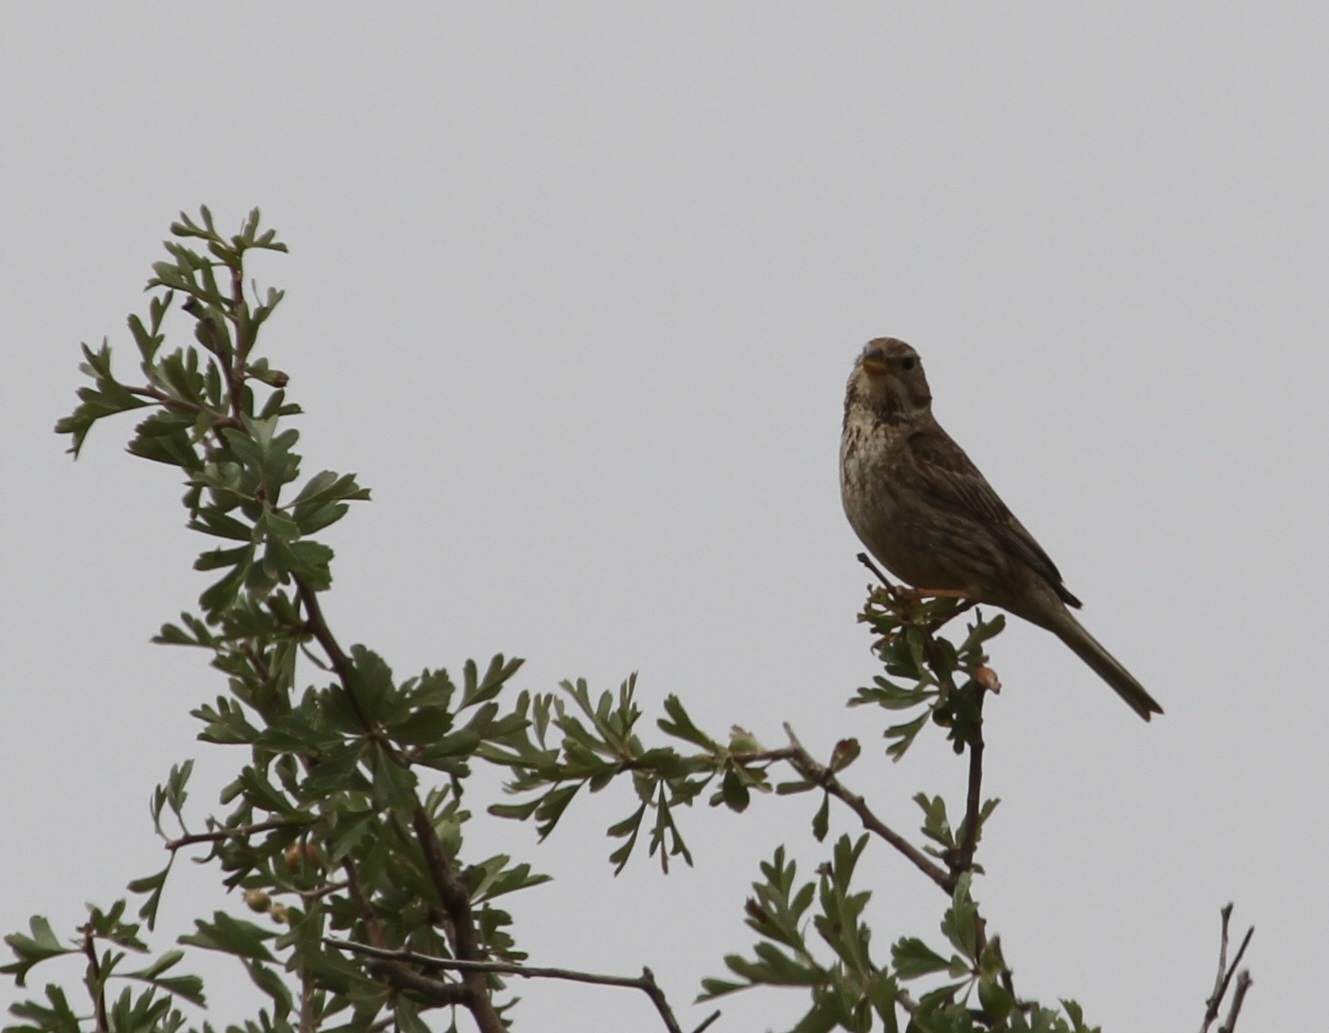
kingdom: Animalia
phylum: Chordata
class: Aves
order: Passeriformes
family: Emberizidae
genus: Emberiza
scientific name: Emberiza calandra
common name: Corn bunting
